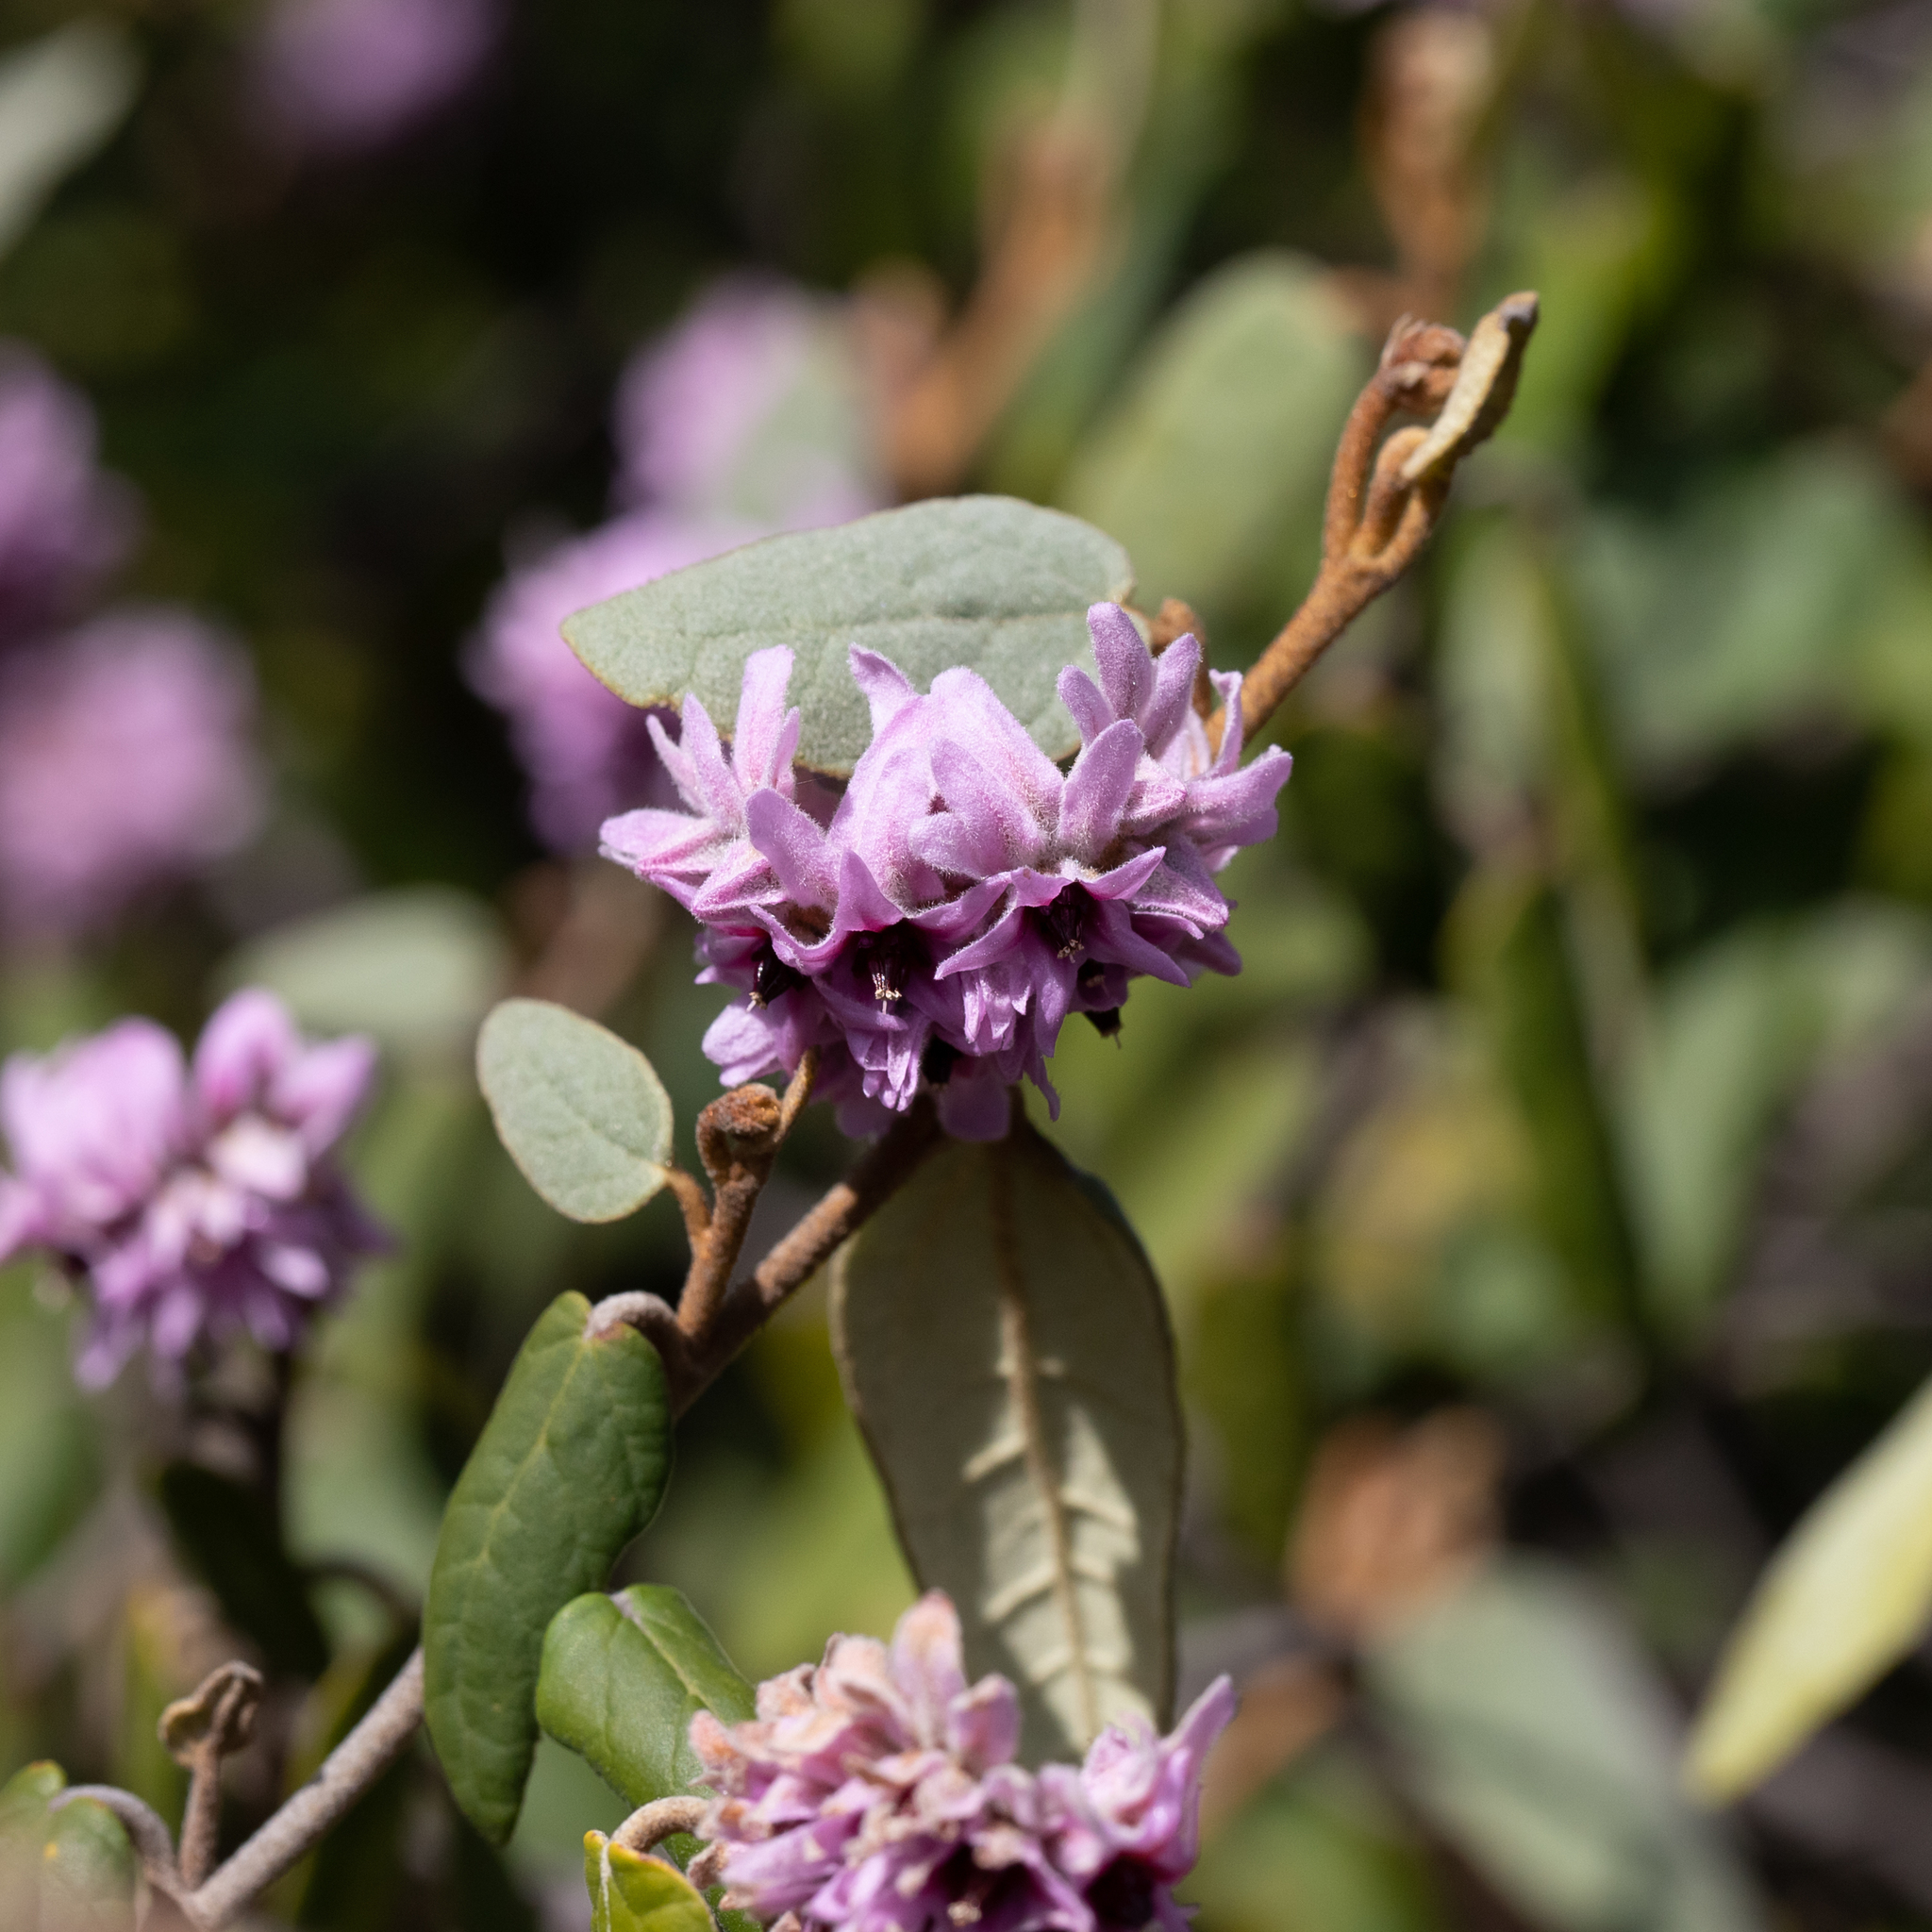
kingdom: Plantae
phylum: Tracheophyta
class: Magnoliopsida
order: Malvales
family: Malvaceae
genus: Lasiopetalum
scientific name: Lasiopetalum discolor
